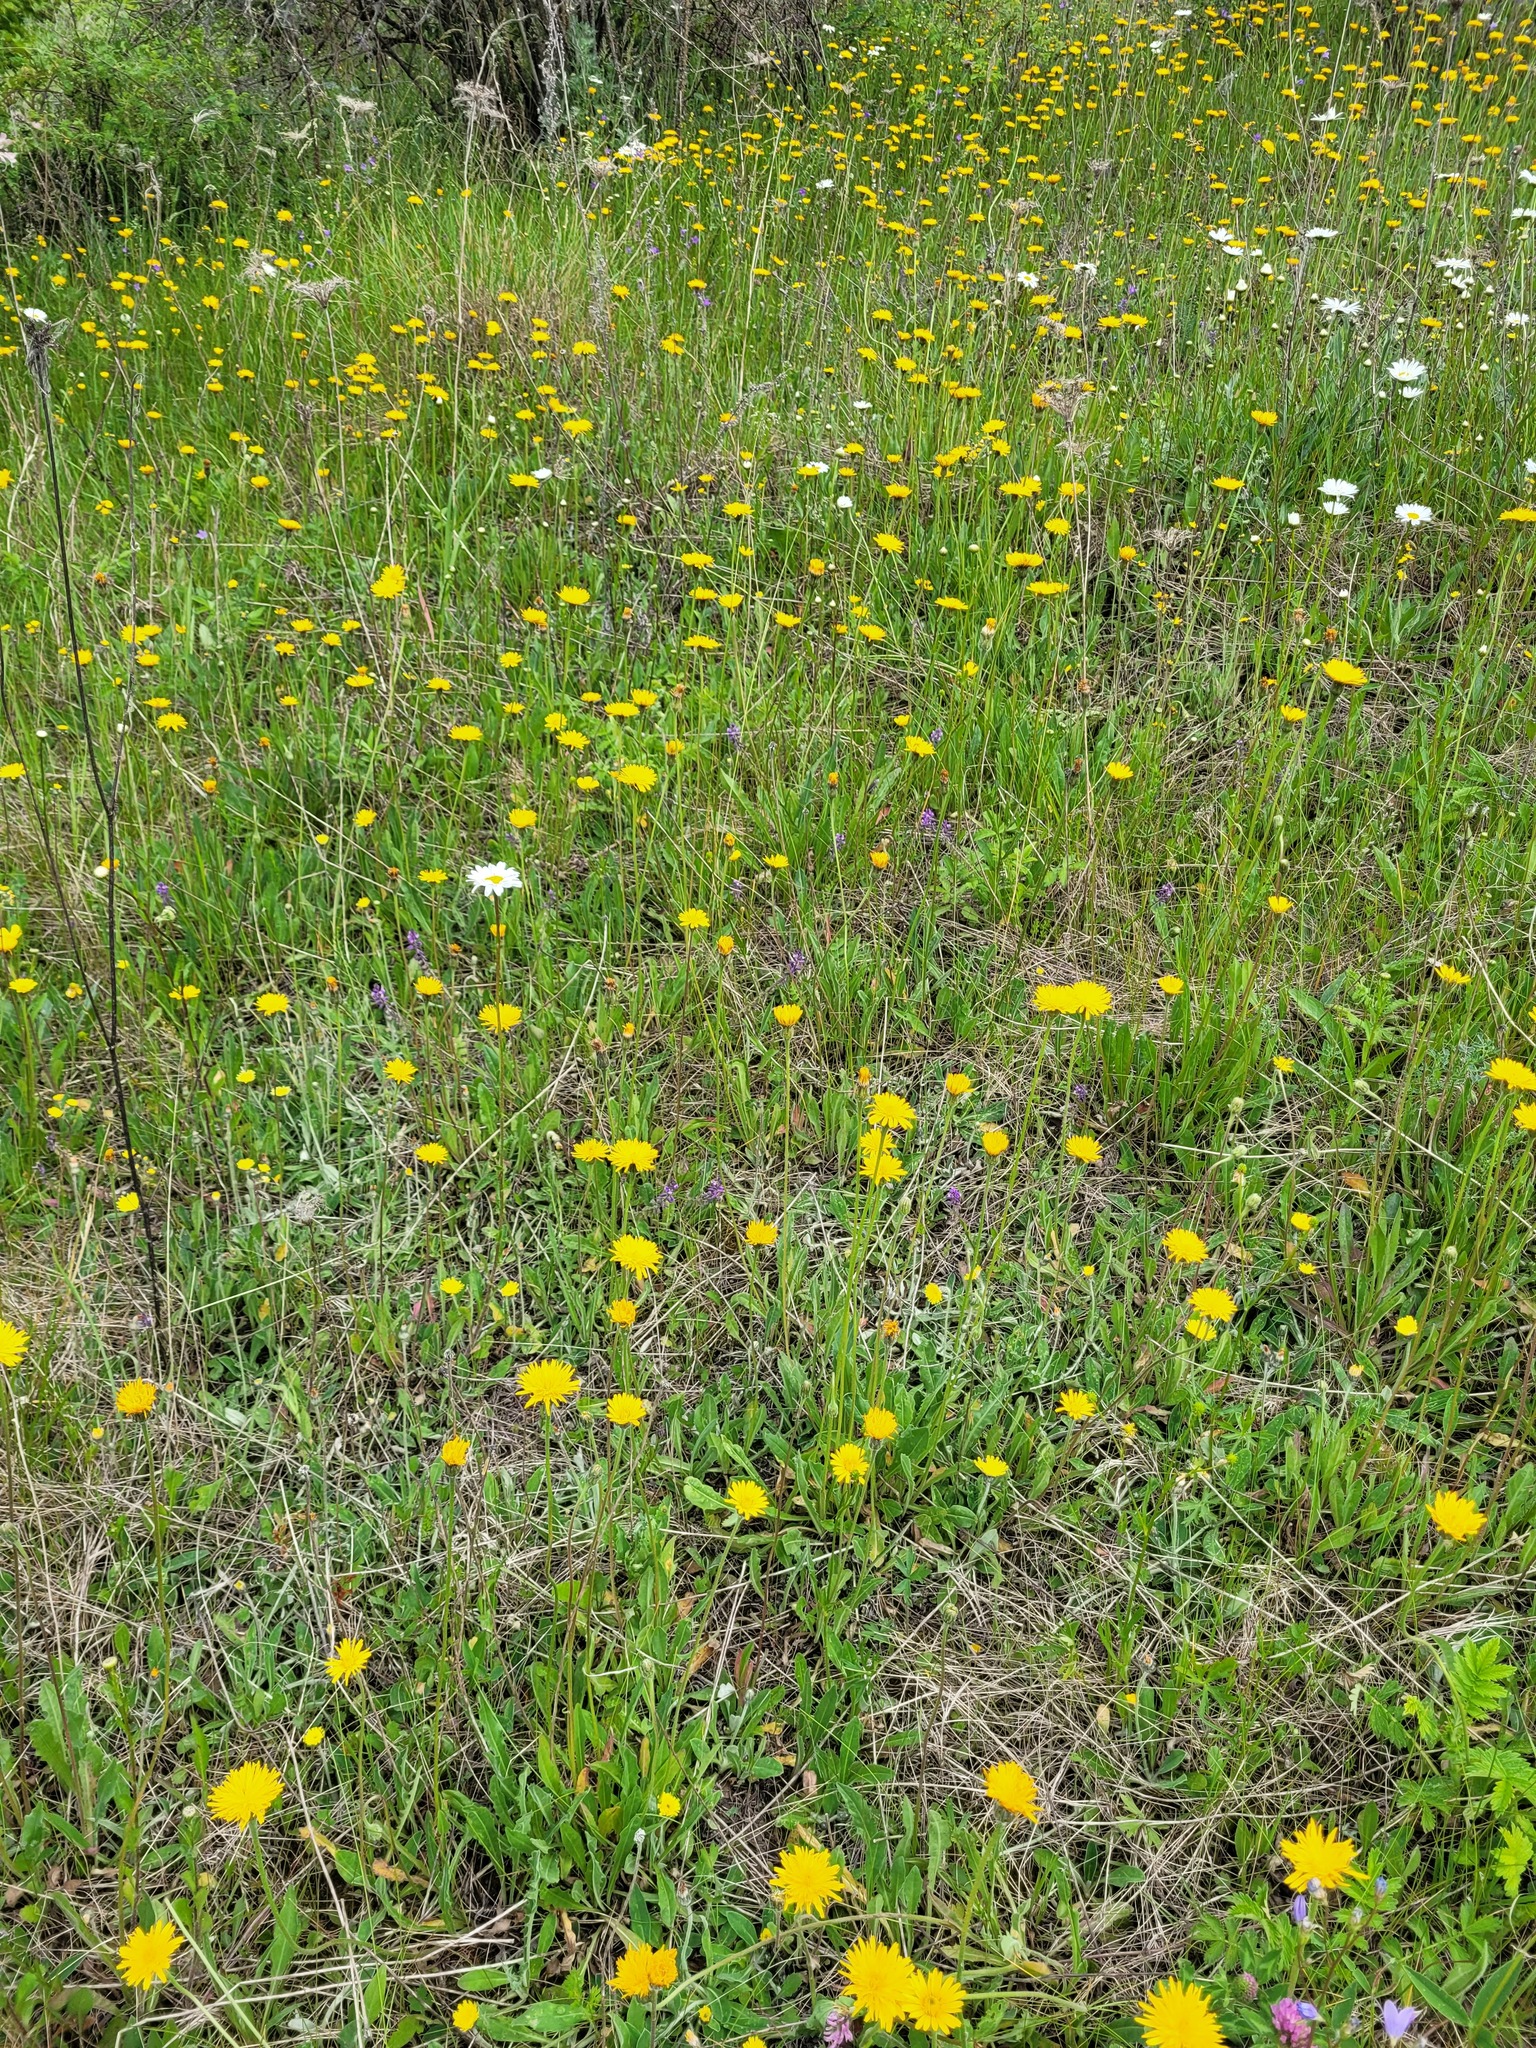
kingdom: Plantae
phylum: Tracheophyta
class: Magnoliopsida
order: Asterales
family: Asteraceae
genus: Leontodon
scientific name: Leontodon hispidus
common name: Rough hawkbit
